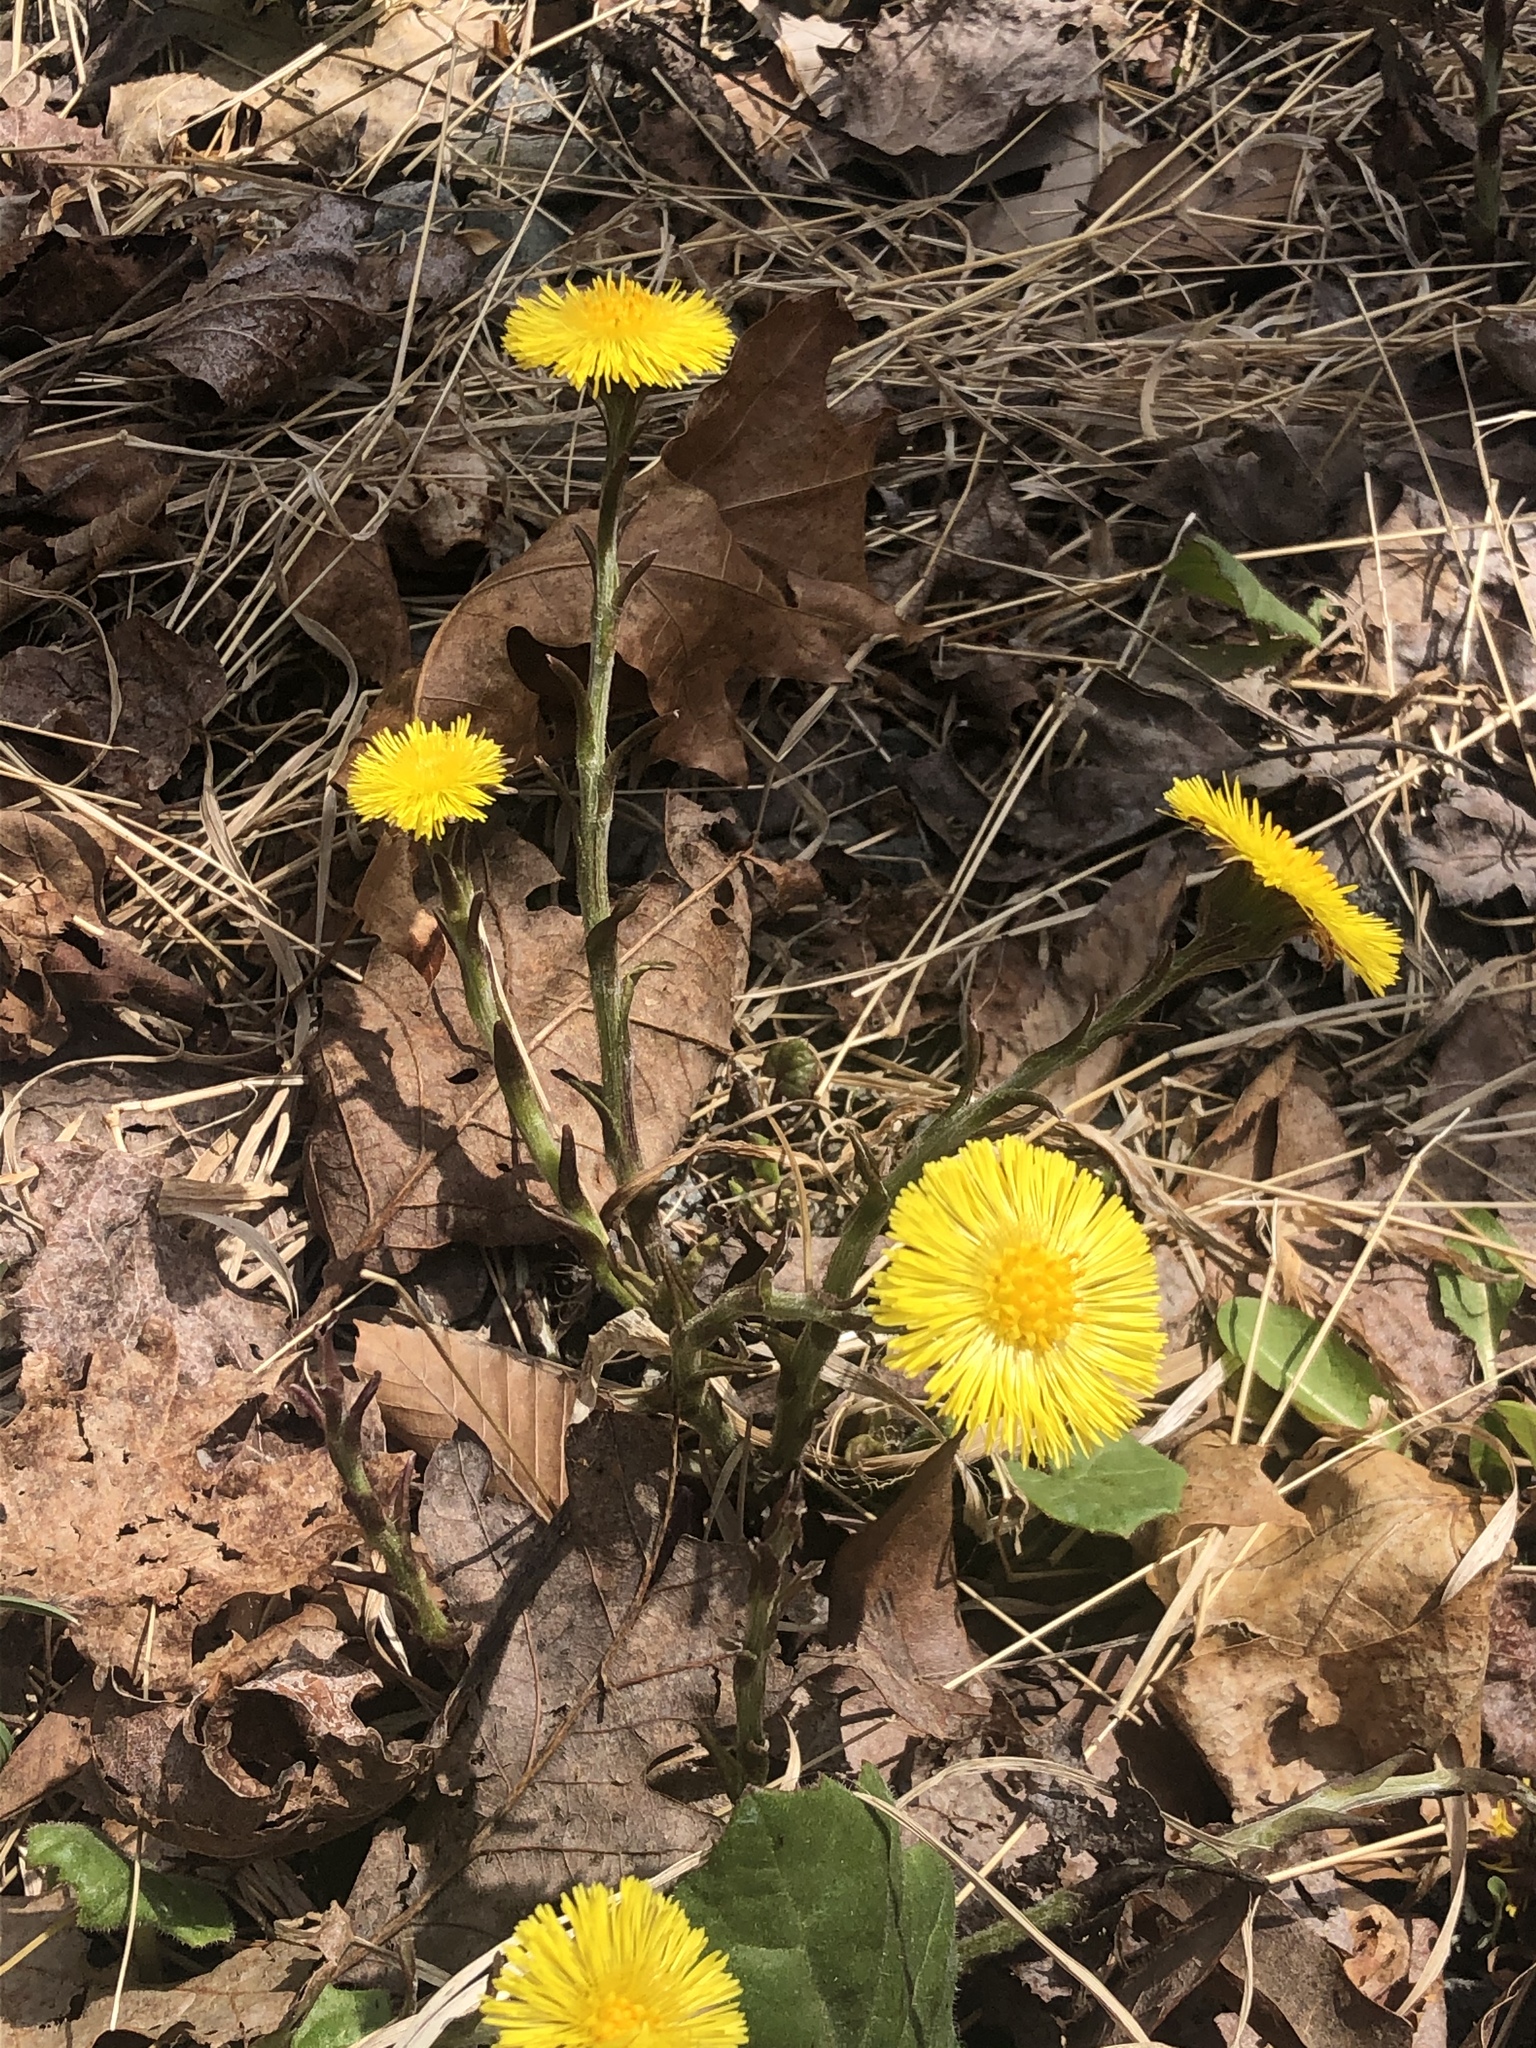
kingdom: Plantae
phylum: Tracheophyta
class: Magnoliopsida
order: Asterales
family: Asteraceae
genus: Tussilago
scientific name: Tussilago farfara
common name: Coltsfoot
